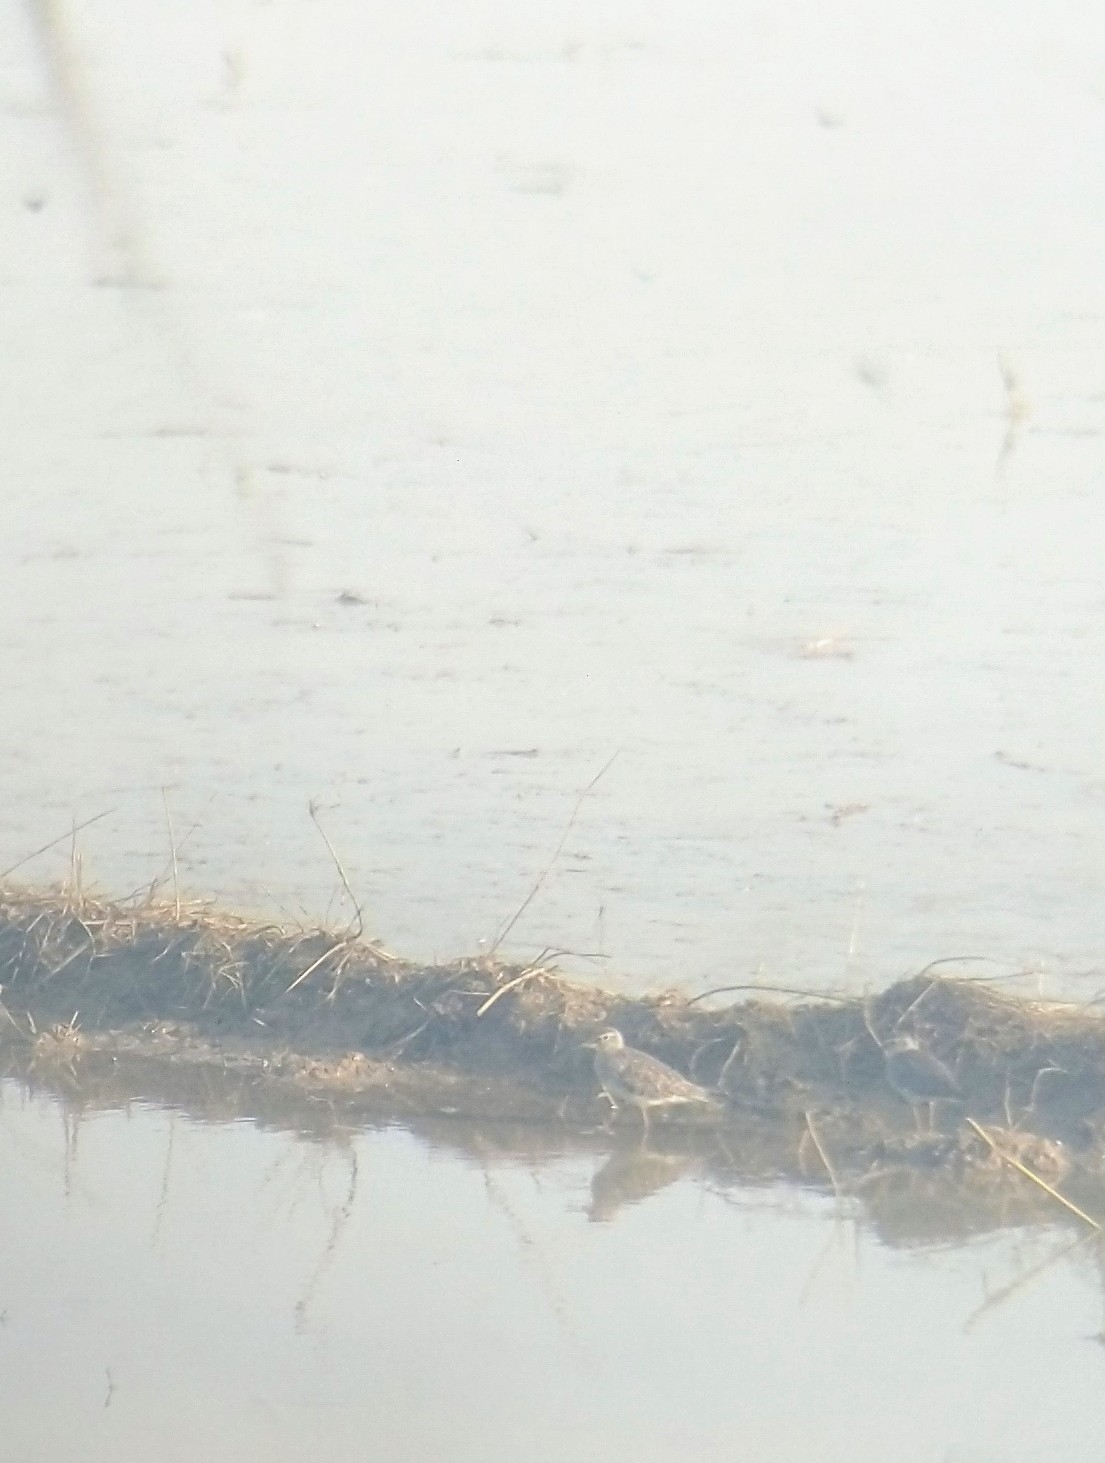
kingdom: Animalia
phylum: Chordata
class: Aves
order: Charadriiformes
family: Scolopacidae
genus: Tringa
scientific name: Tringa glareola
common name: Wood sandpiper
